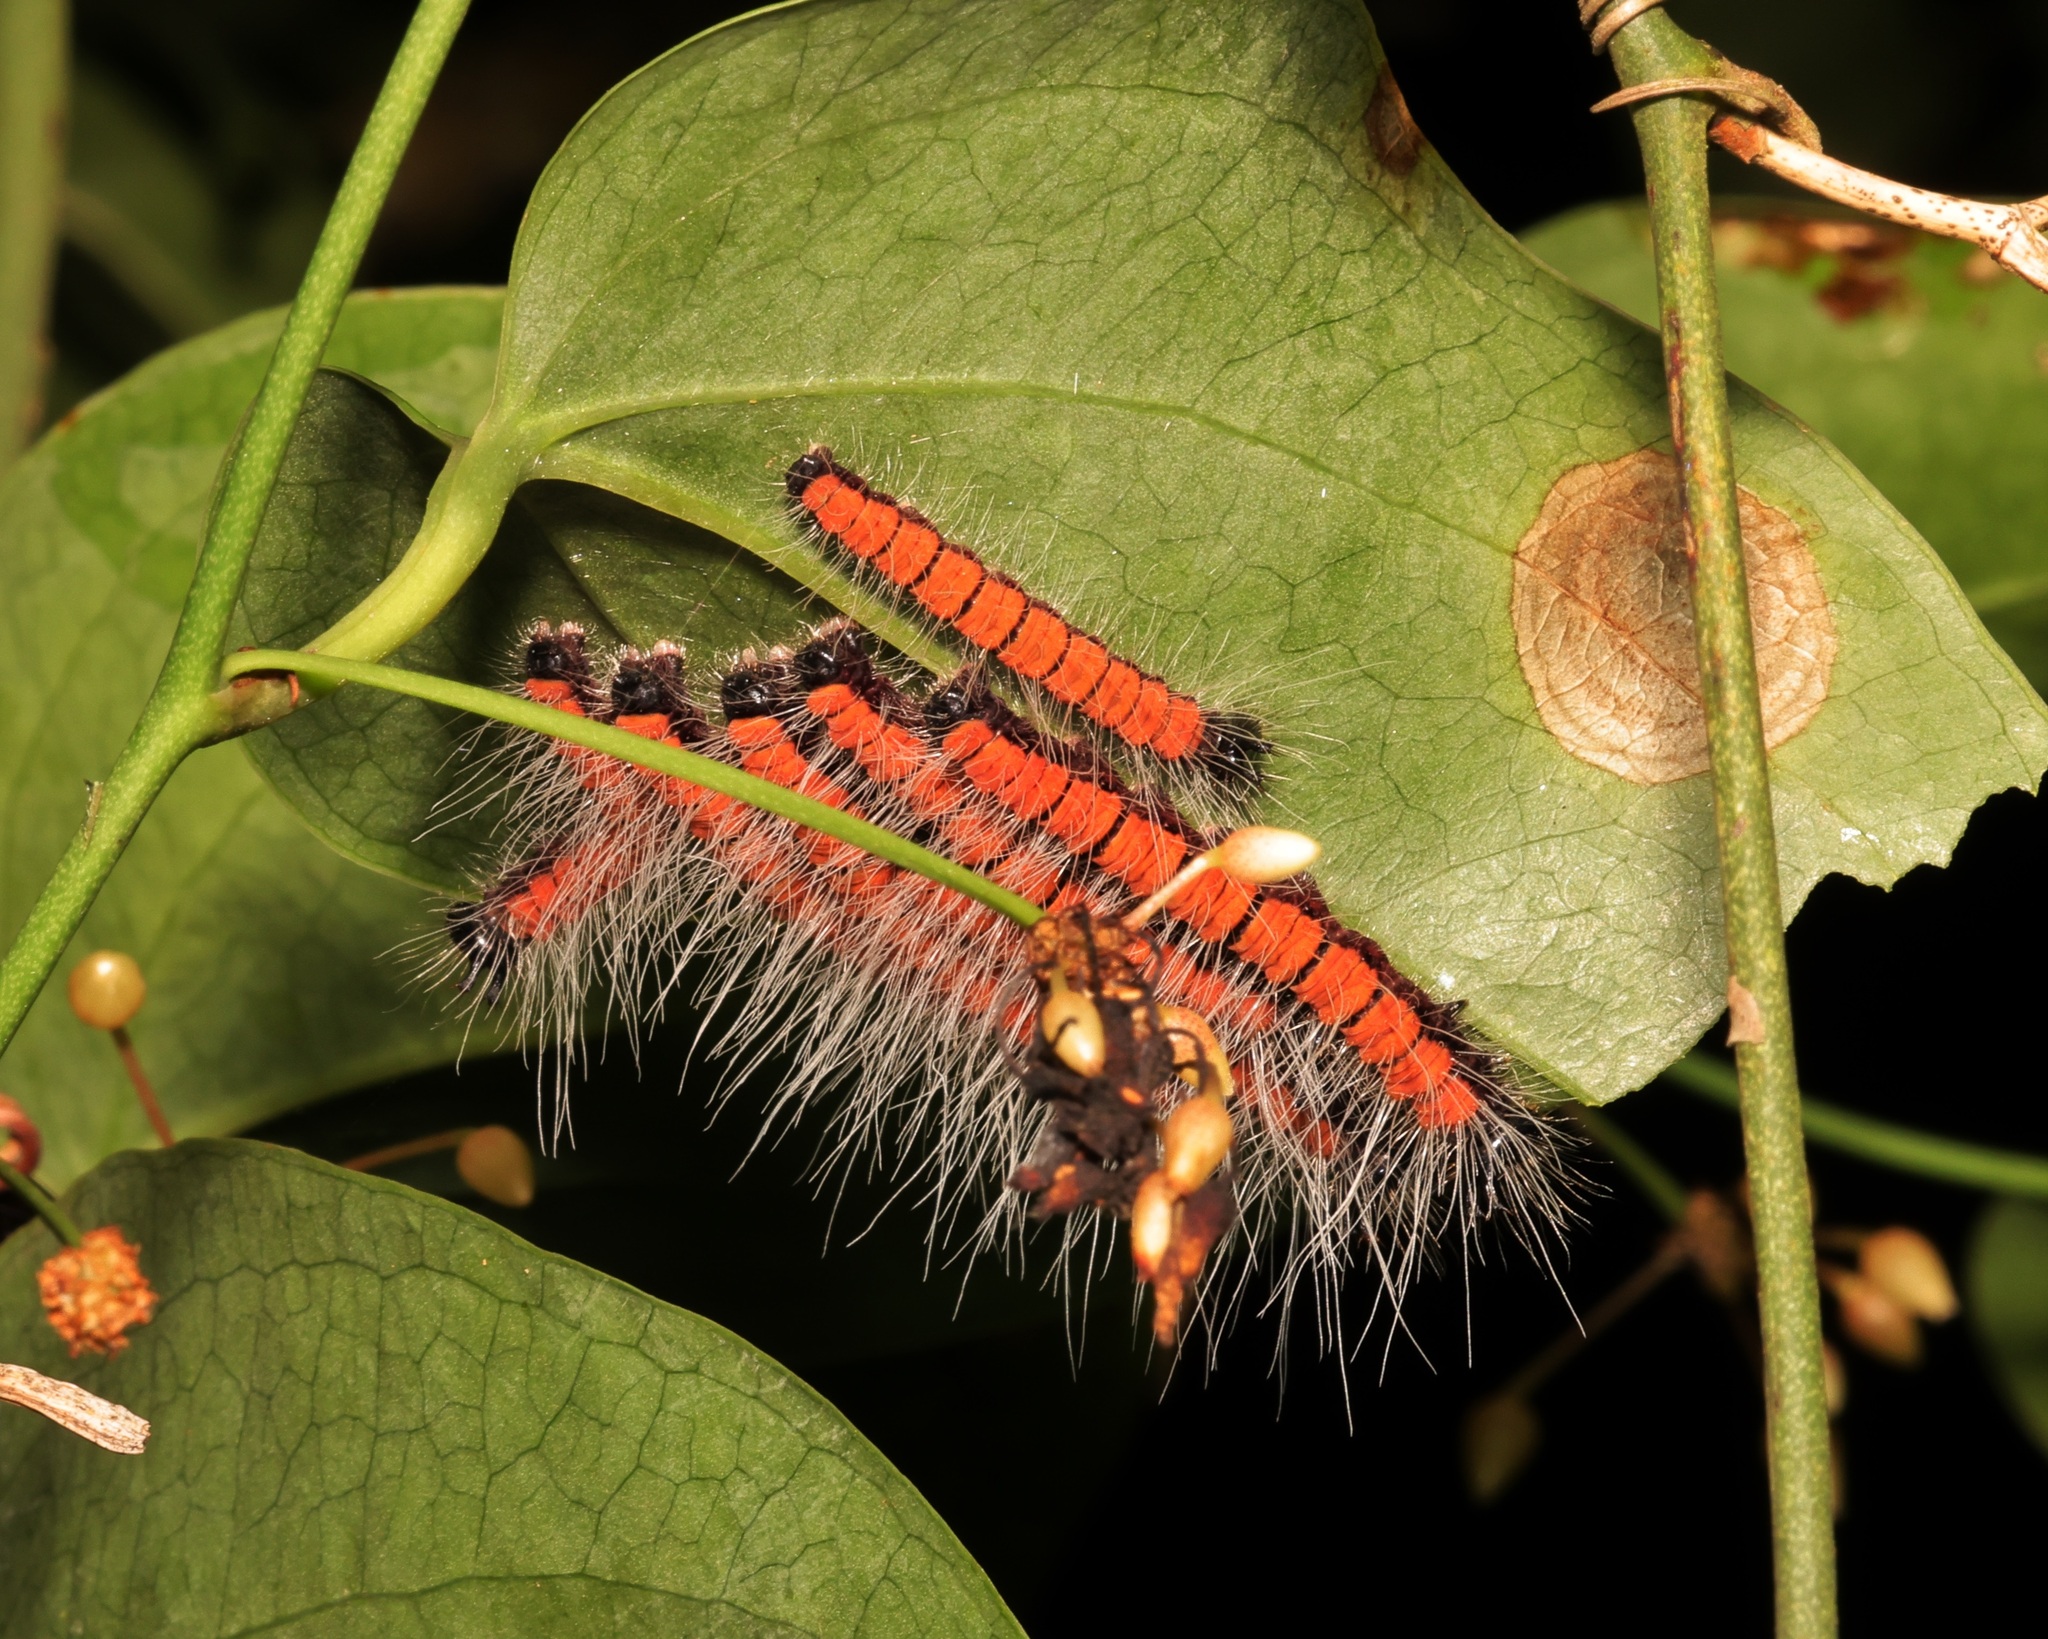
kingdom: Animalia
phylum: Arthropoda
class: Insecta
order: Lepidoptera
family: Nymphalidae
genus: Faunis
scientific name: Faunis eumeus
